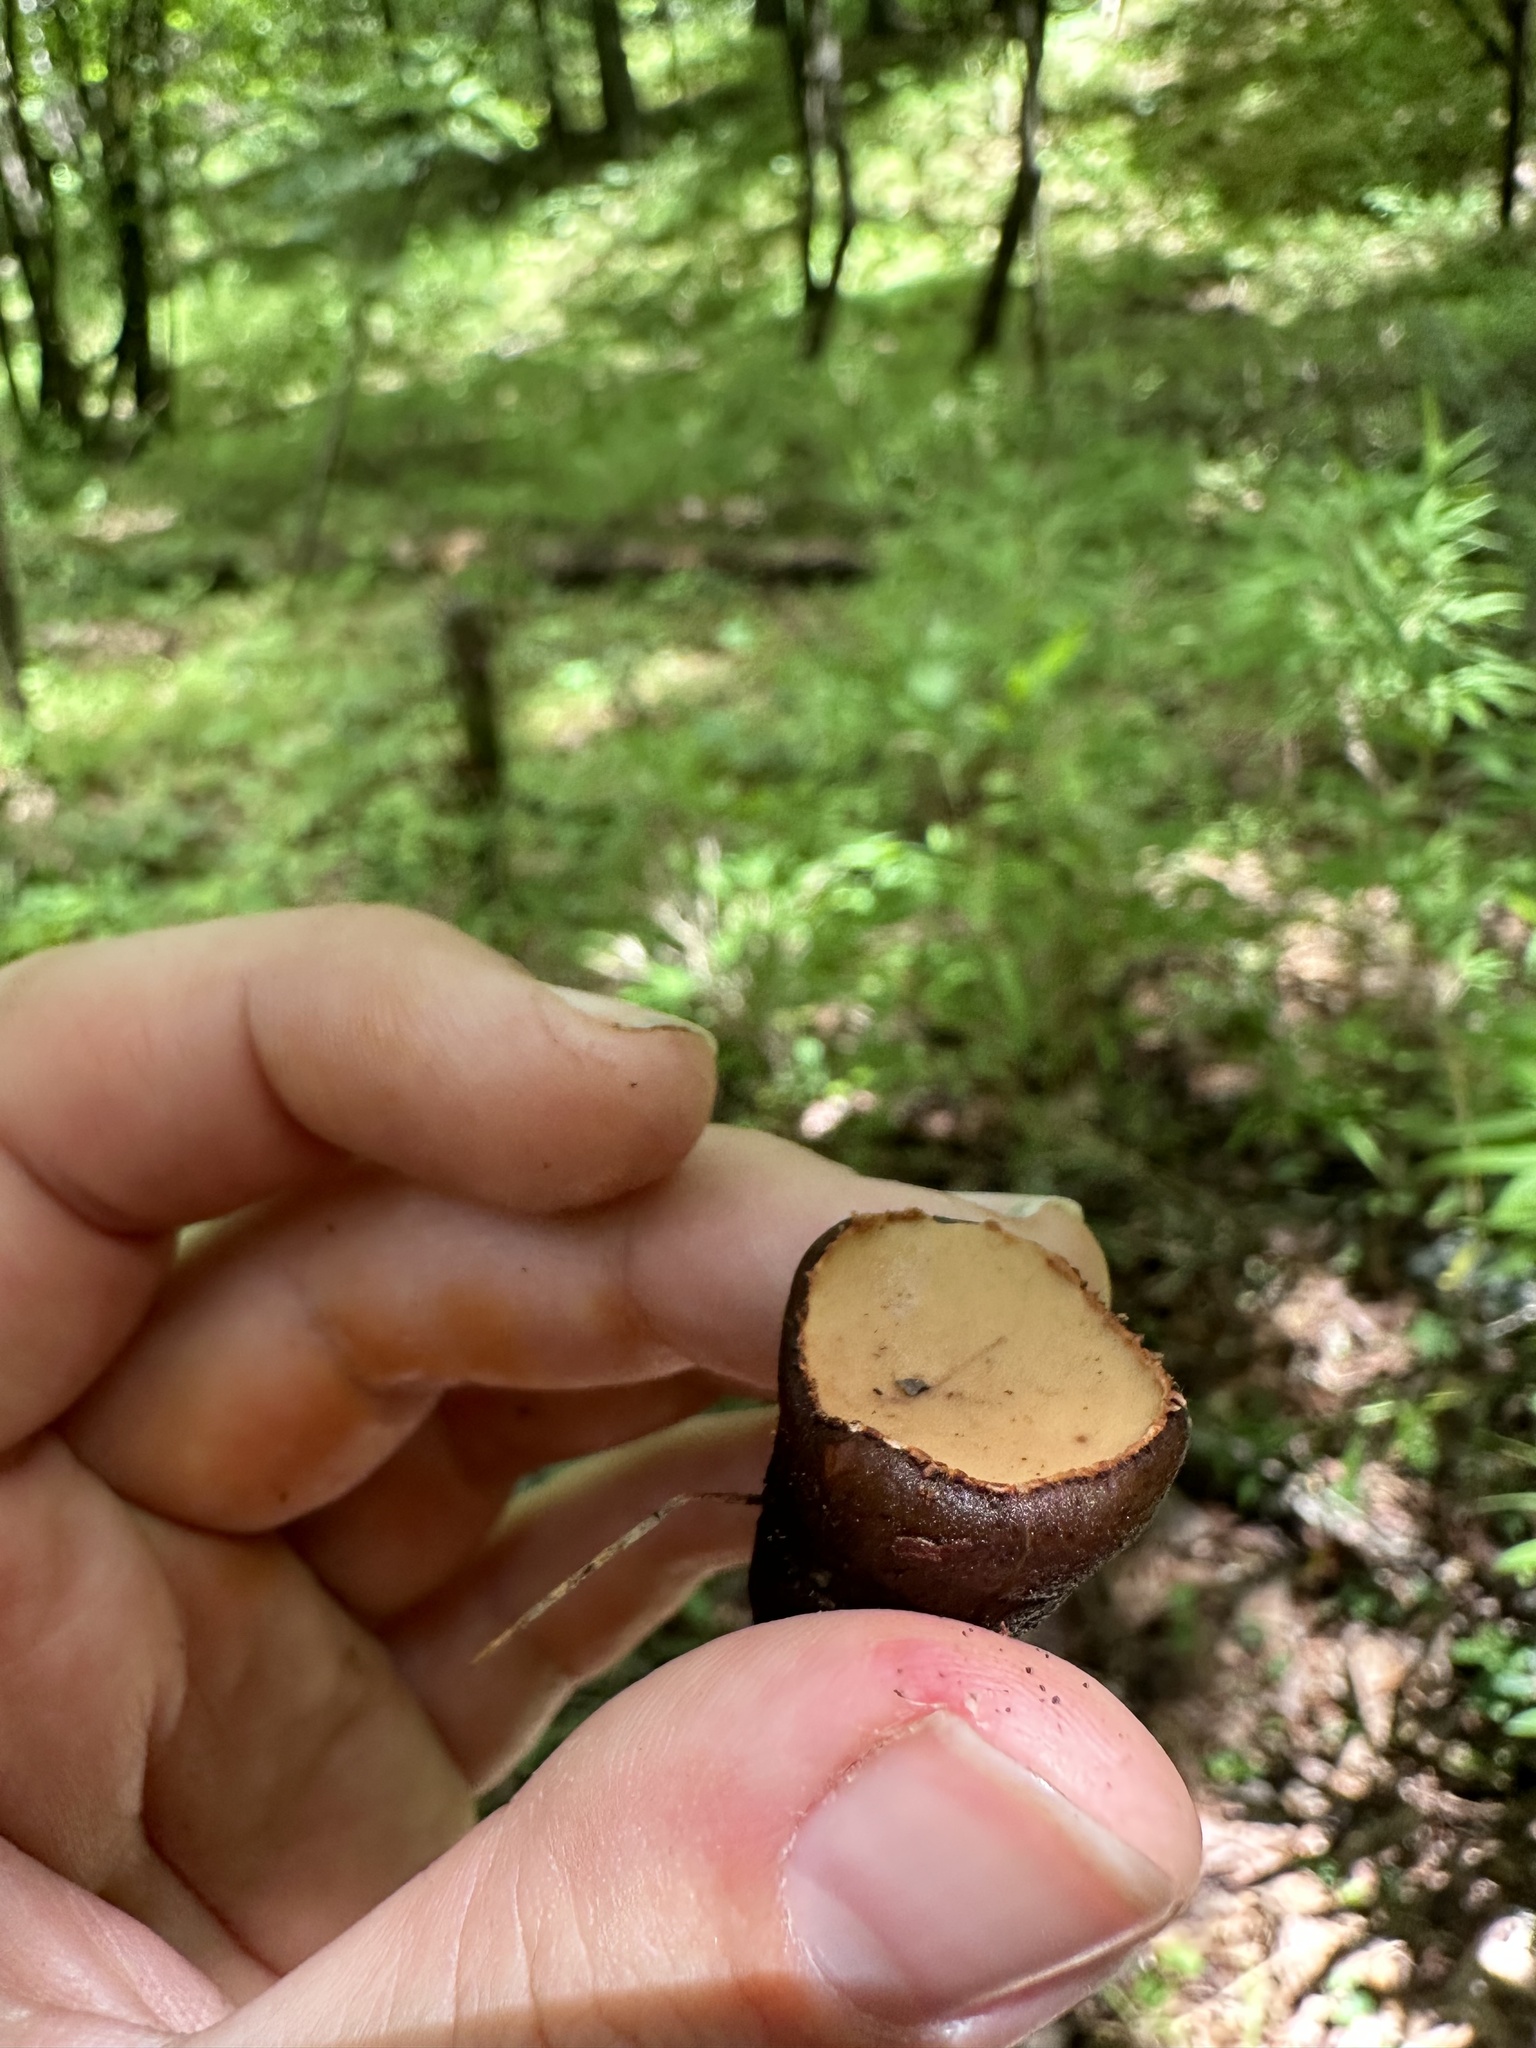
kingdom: Fungi
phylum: Ascomycota
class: Pezizomycetes
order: Pezizales
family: Sarcosomataceae
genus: Galiella
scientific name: Galiella rufa
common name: Hairy rubber cup
